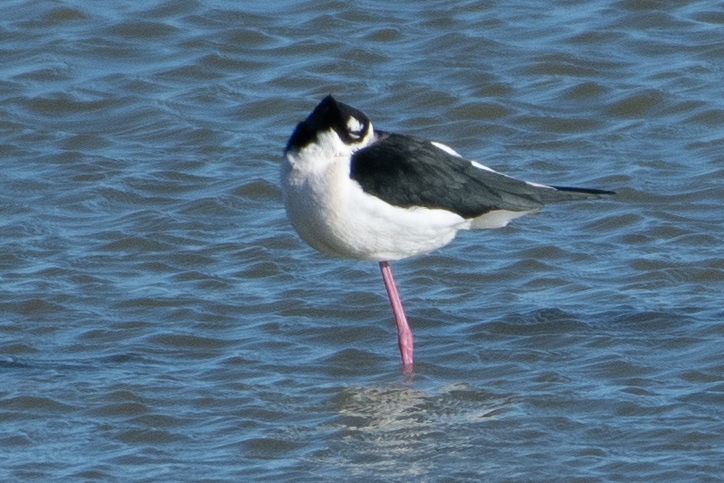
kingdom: Animalia
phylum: Chordata
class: Aves
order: Charadriiformes
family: Recurvirostridae
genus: Himantopus
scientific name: Himantopus mexicanus
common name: Black-necked stilt
